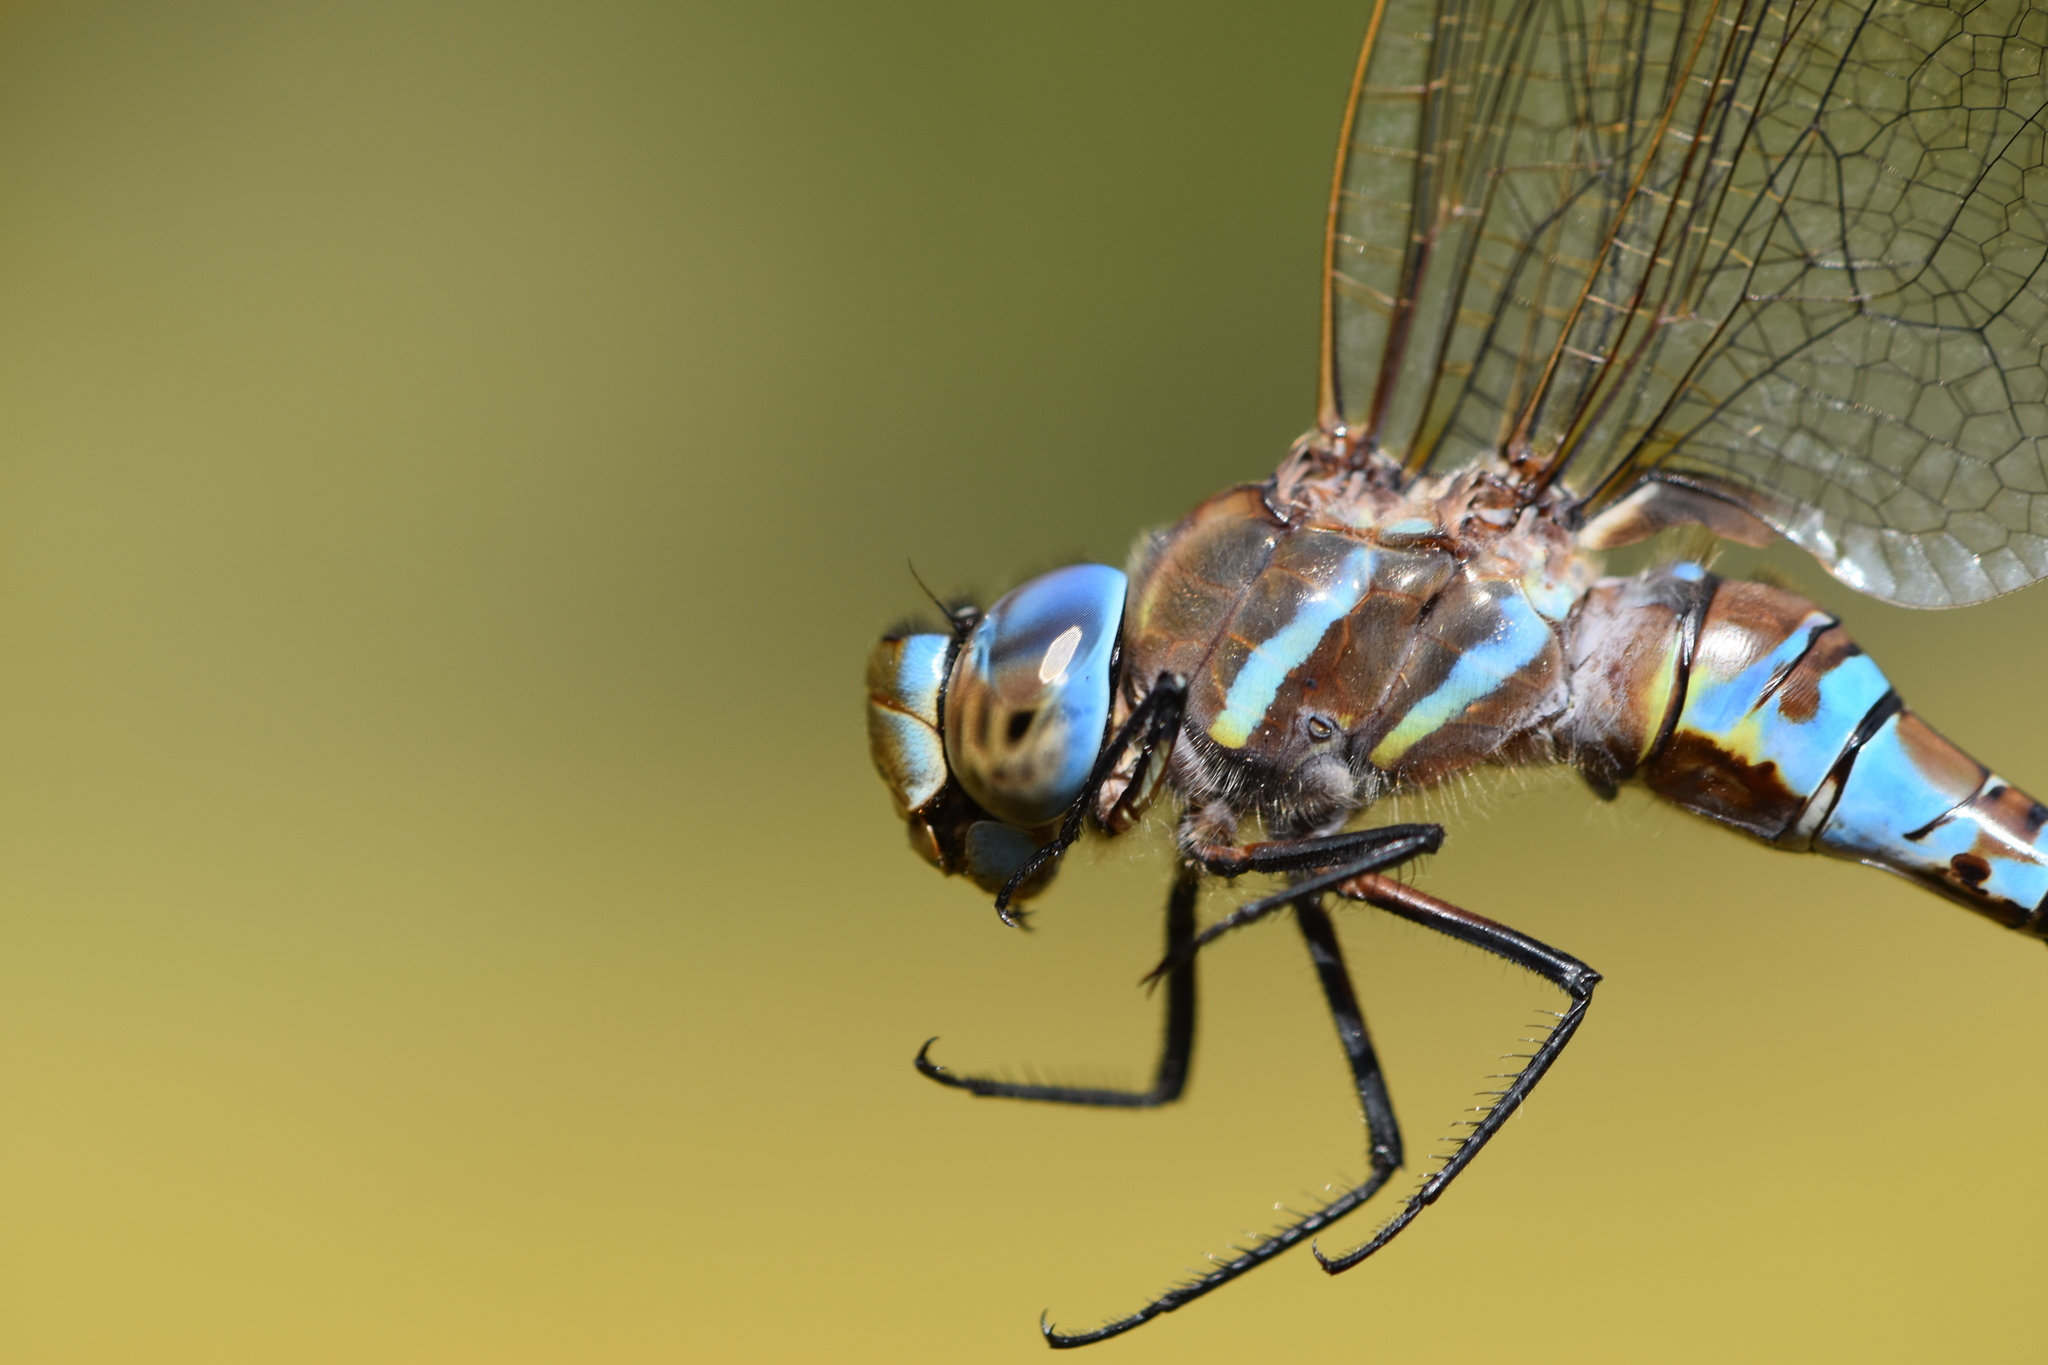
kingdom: Animalia
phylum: Arthropoda
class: Insecta
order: Odonata
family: Aeshnidae
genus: Rhionaeschna
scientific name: Rhionaeschna multicolor
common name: Blue-eyed darner
